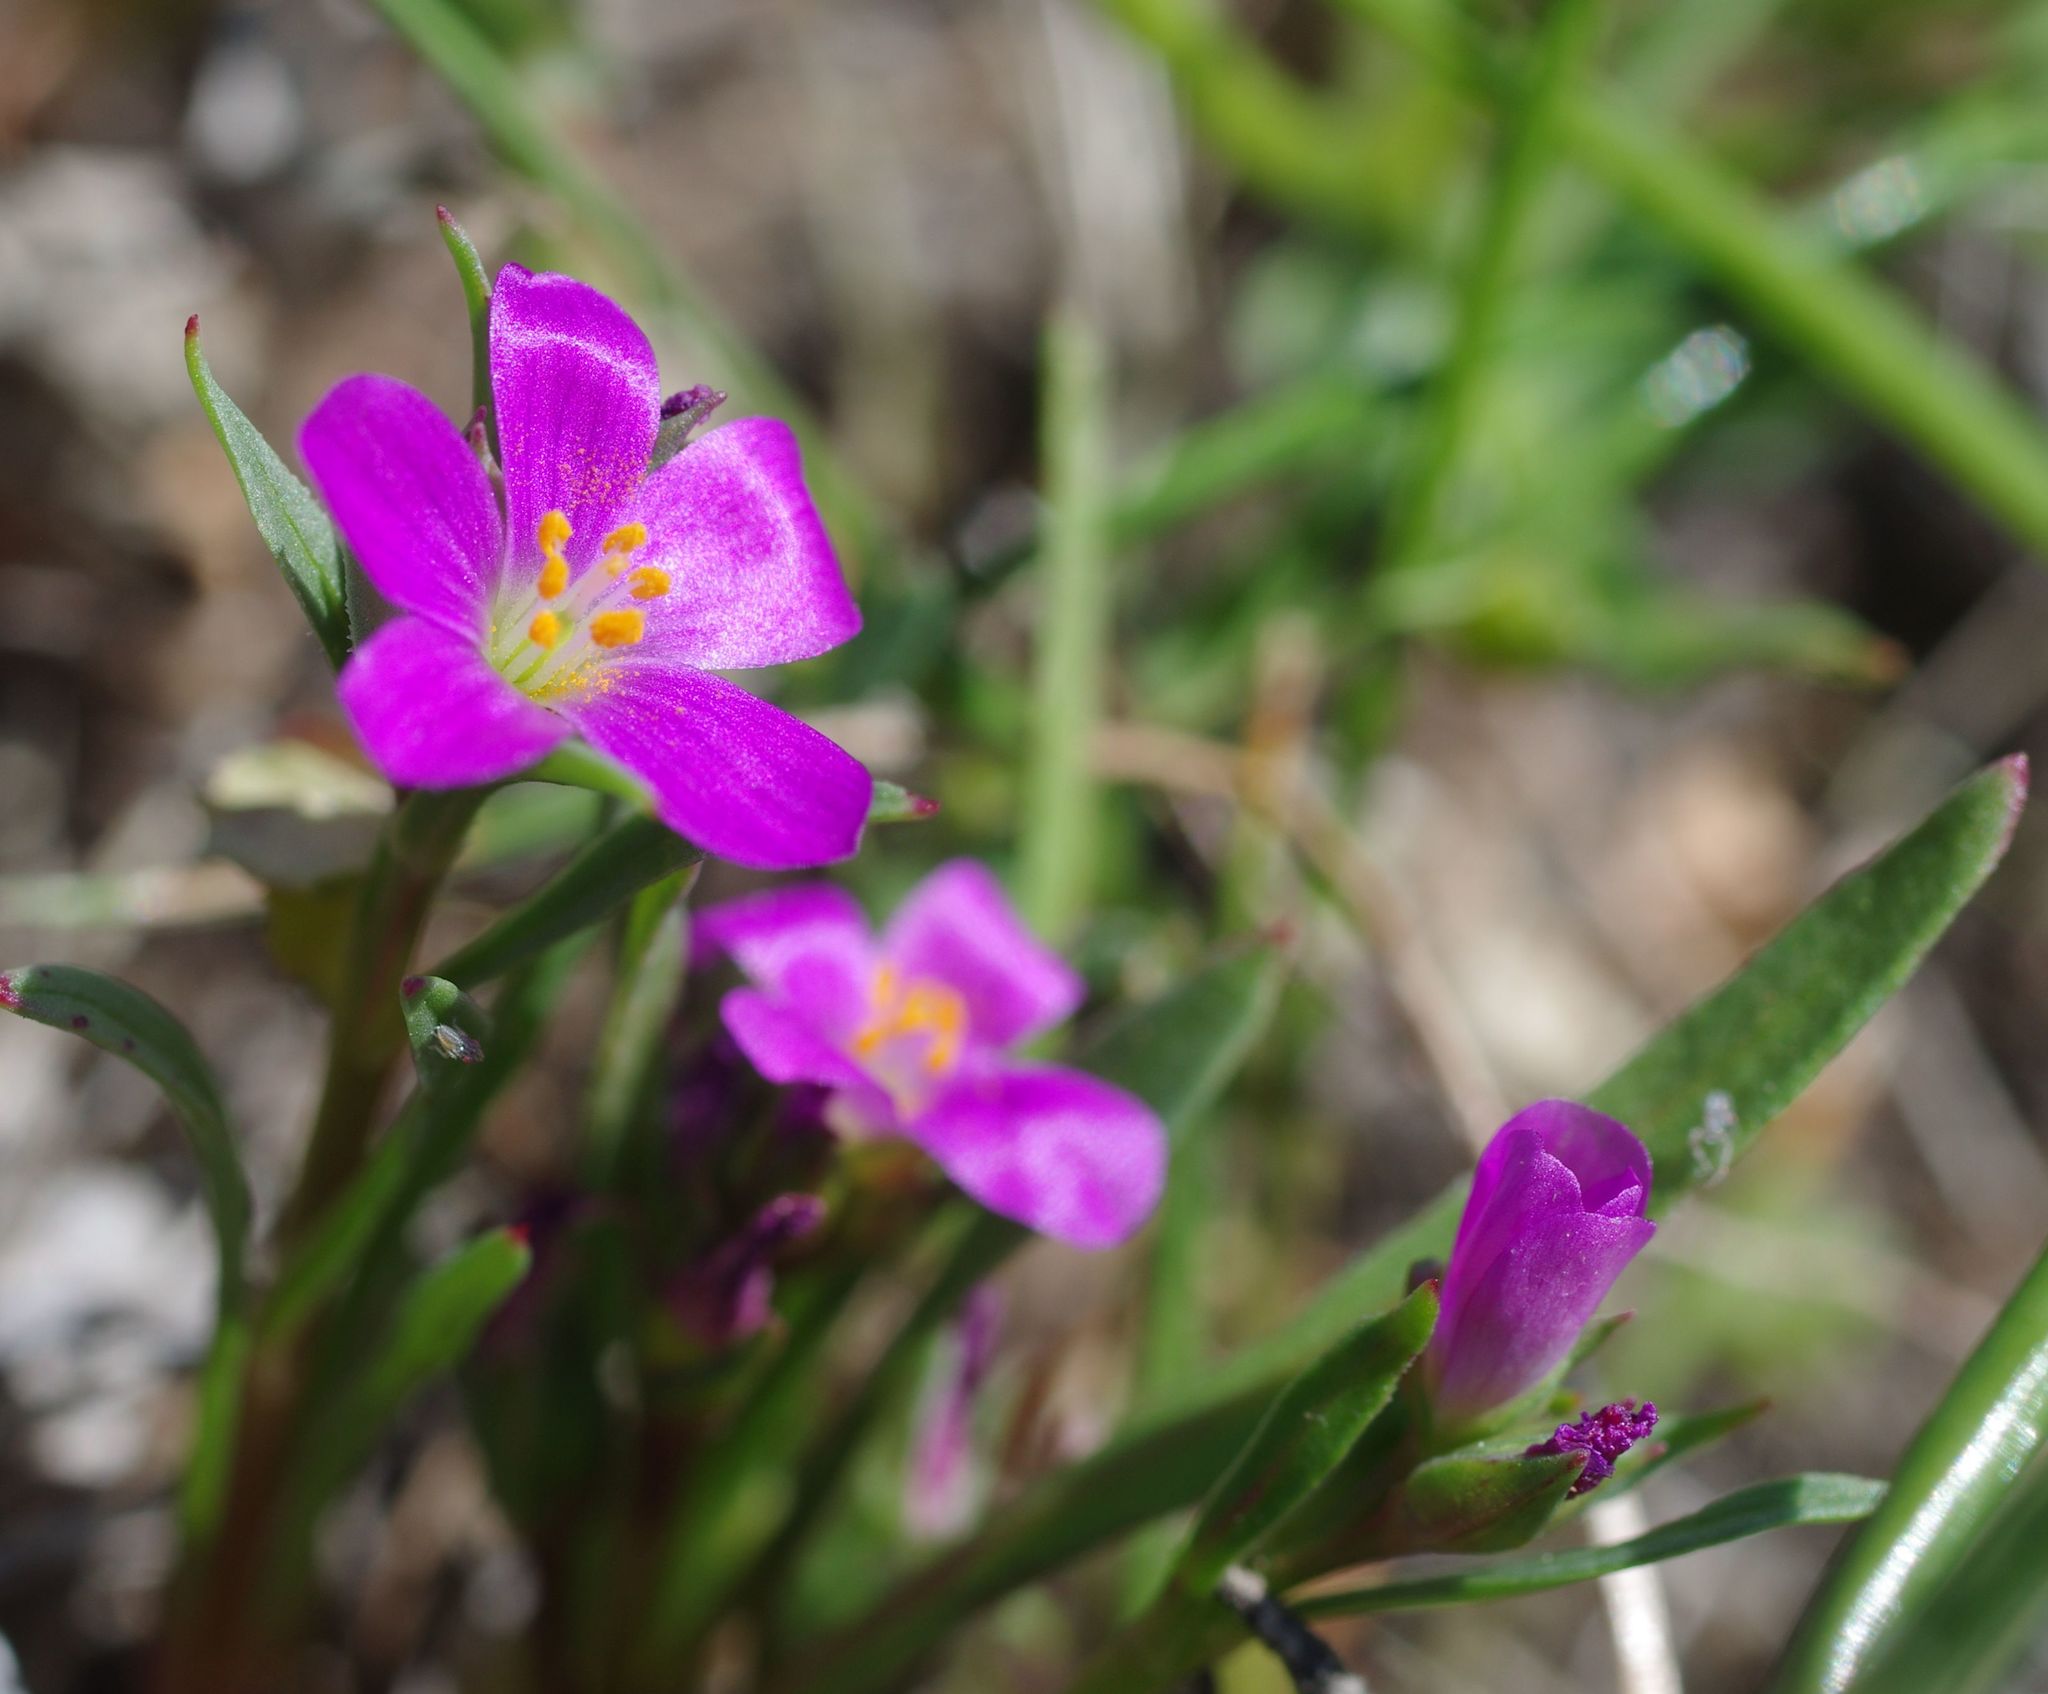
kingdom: Plantae
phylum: Tracheophyta
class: Magnoliopsida
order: Caryophyllales
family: Montiaceae
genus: Calandrinia
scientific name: Calandrinia menziesii
